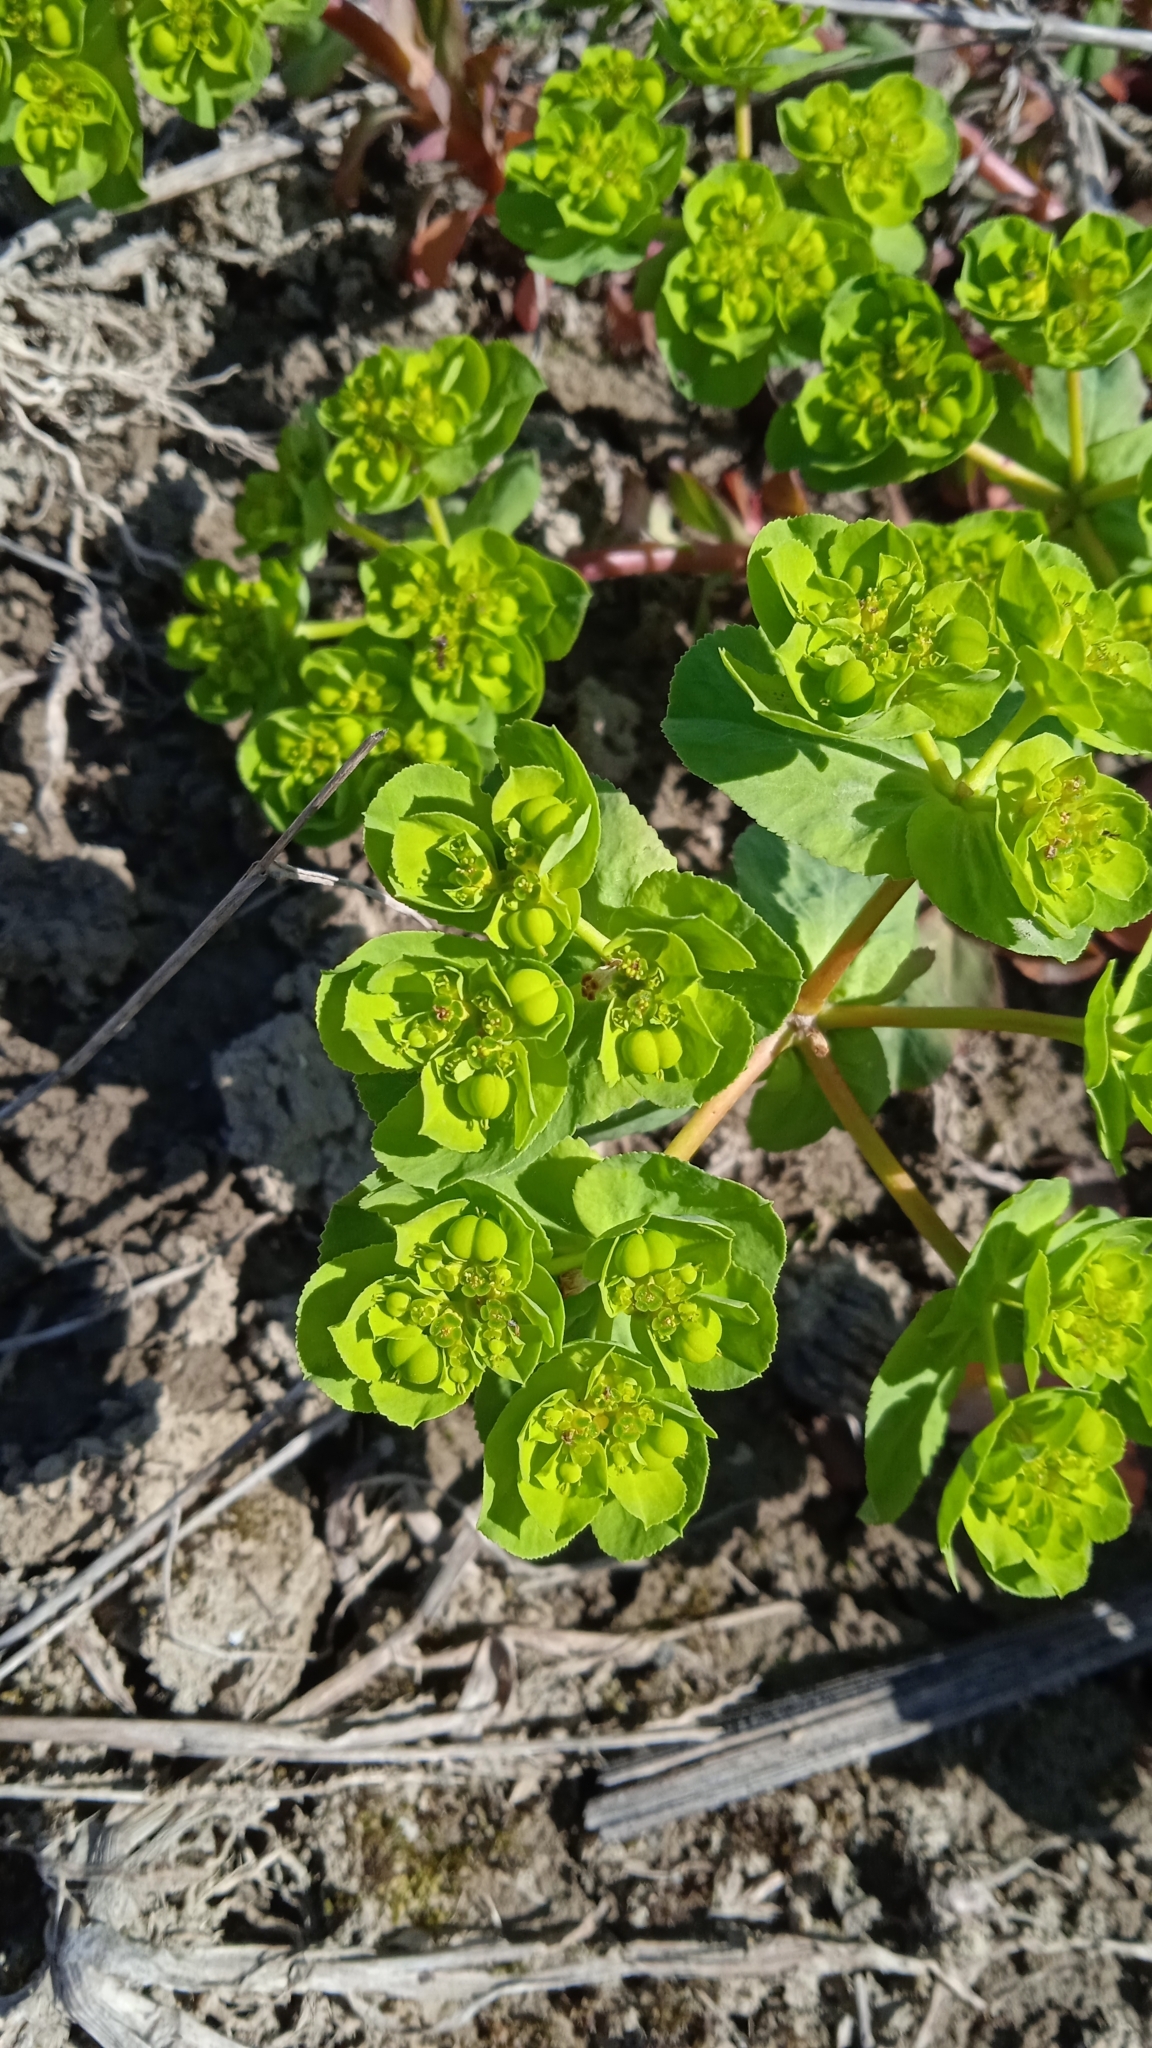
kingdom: Plantae
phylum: Tracheophyta
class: Magnoliopsida
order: Malpighiales
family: Euphorbiaceae
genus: Euphorbia
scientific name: Euphorbia helioscopia
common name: Sun spurge
